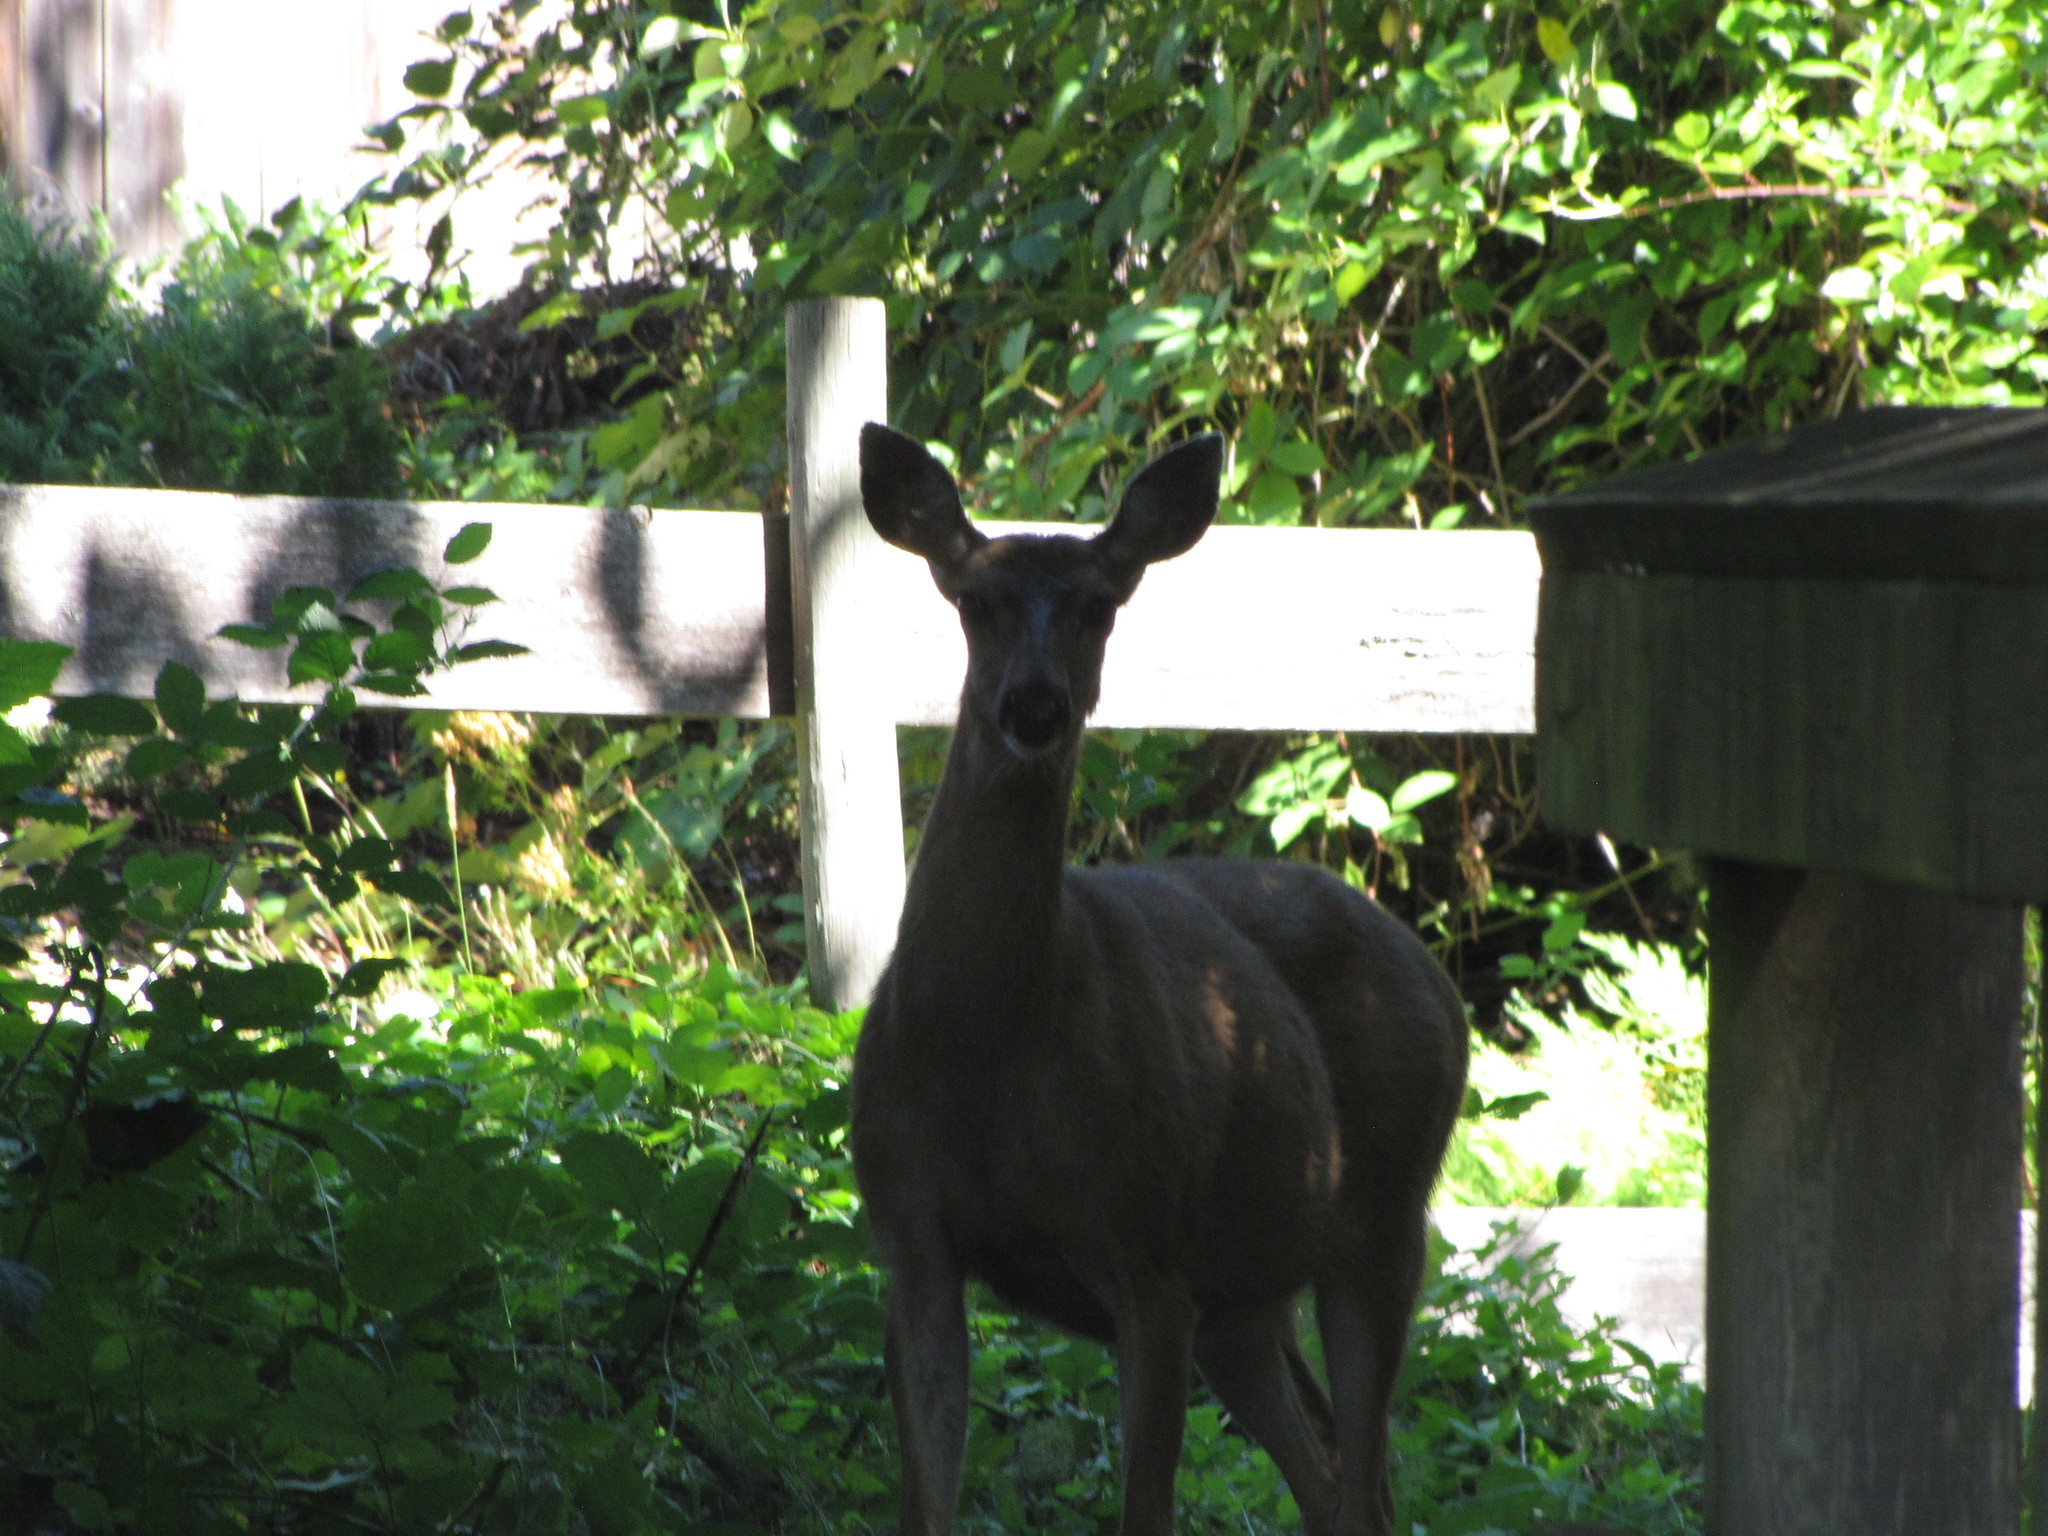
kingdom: Animalia
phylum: Chordata
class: Mammalia
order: Artiodactyla
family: Cervidae
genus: Odocoileus
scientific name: Odocoileus hemionus
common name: Mule deer
